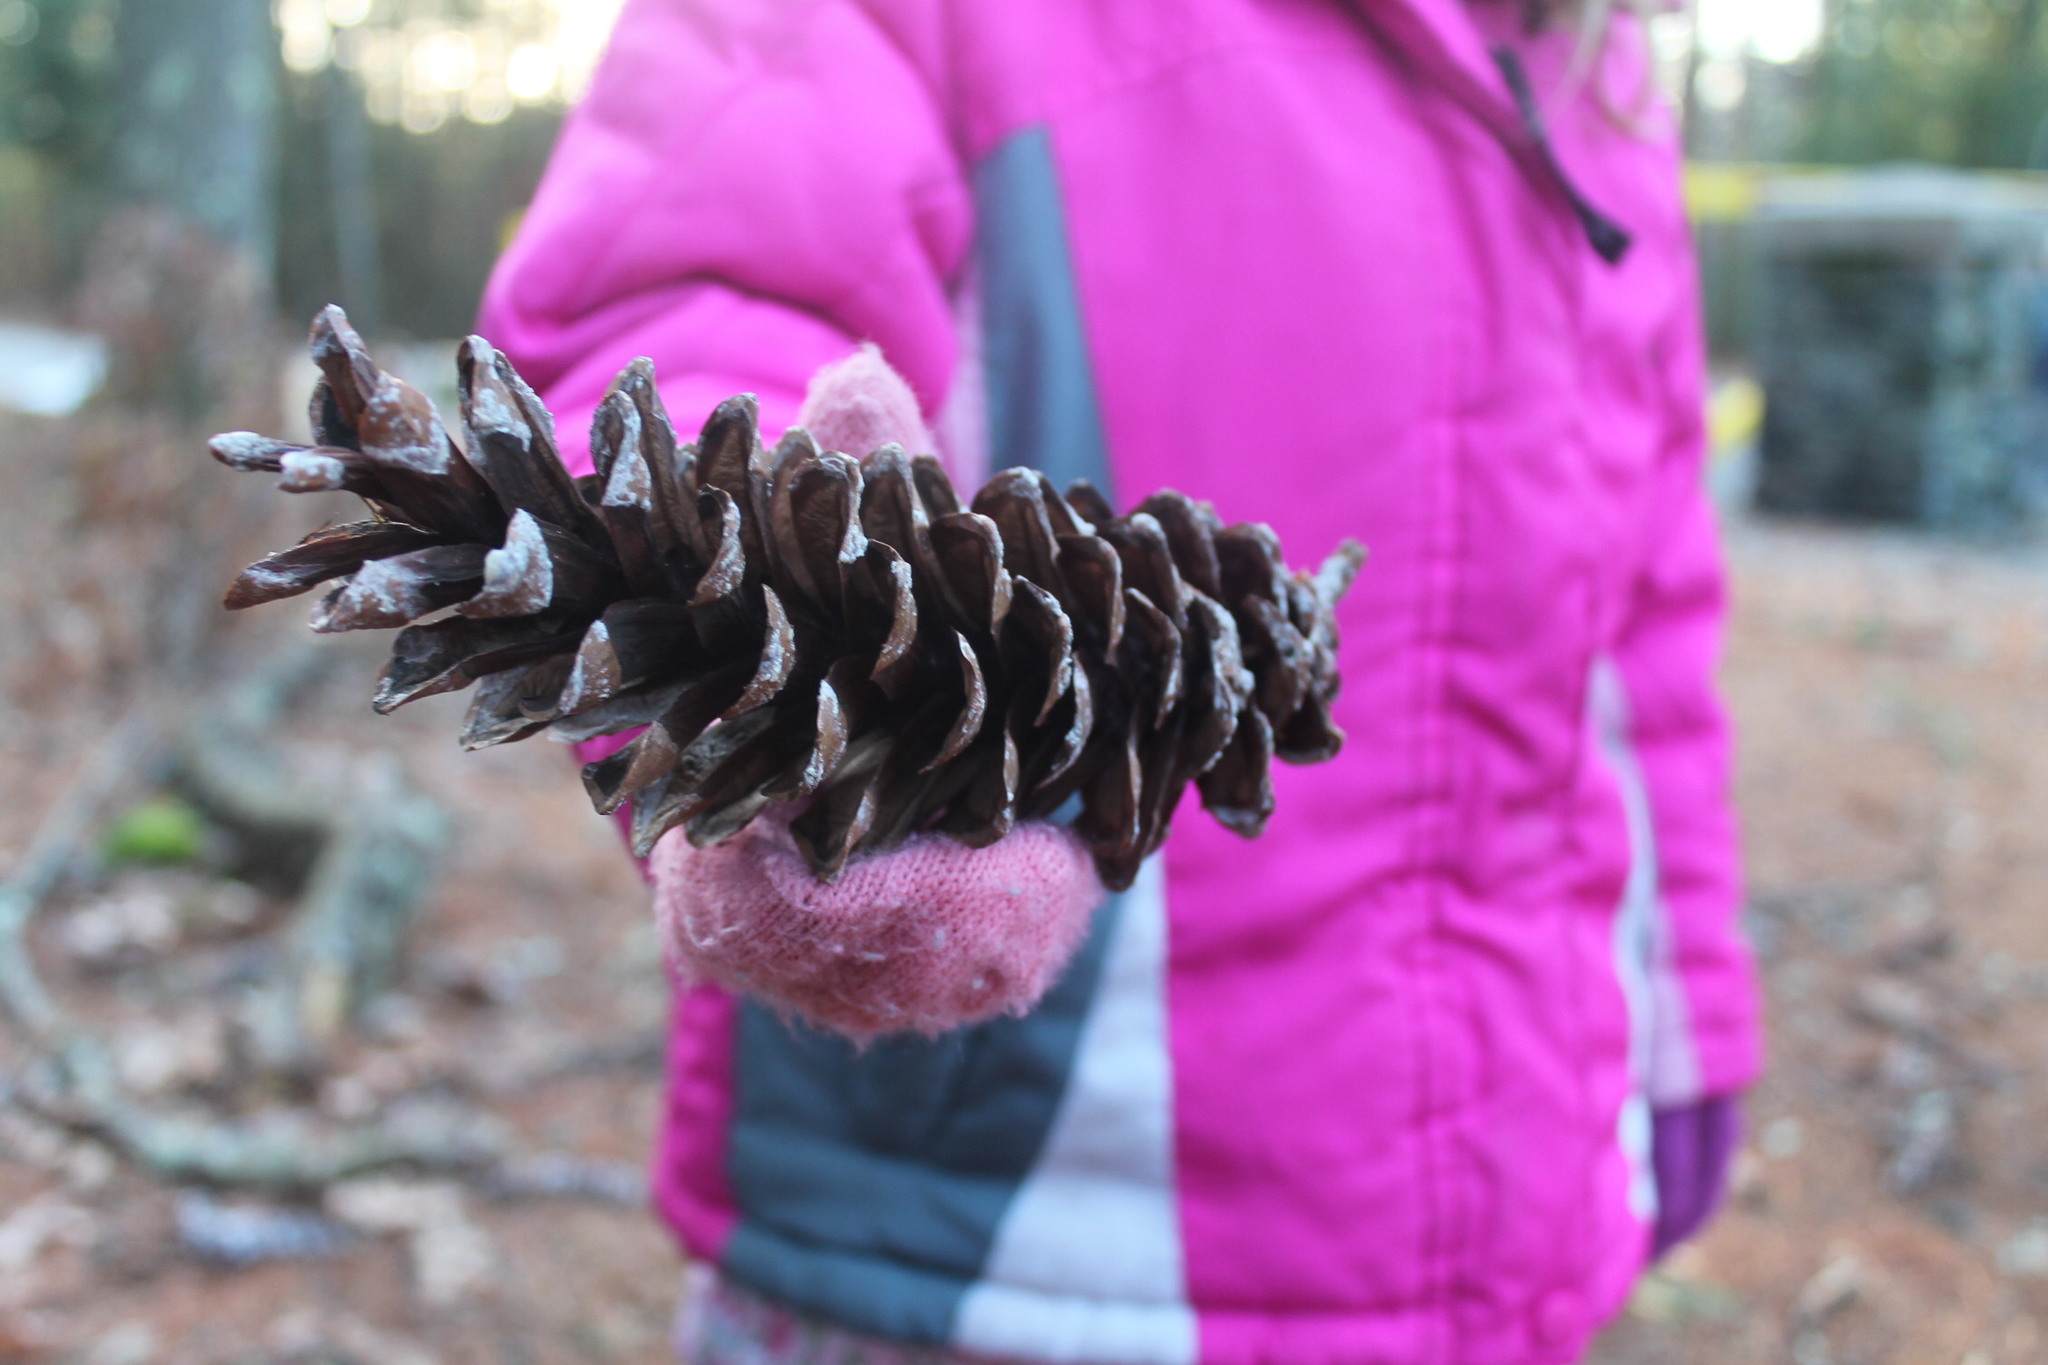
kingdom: Plantae
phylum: Tracheophyta
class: Pinopsida
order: Pinales
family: Pinaceae
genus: Pinus
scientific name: Pinus strobus
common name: Weymouth pine
